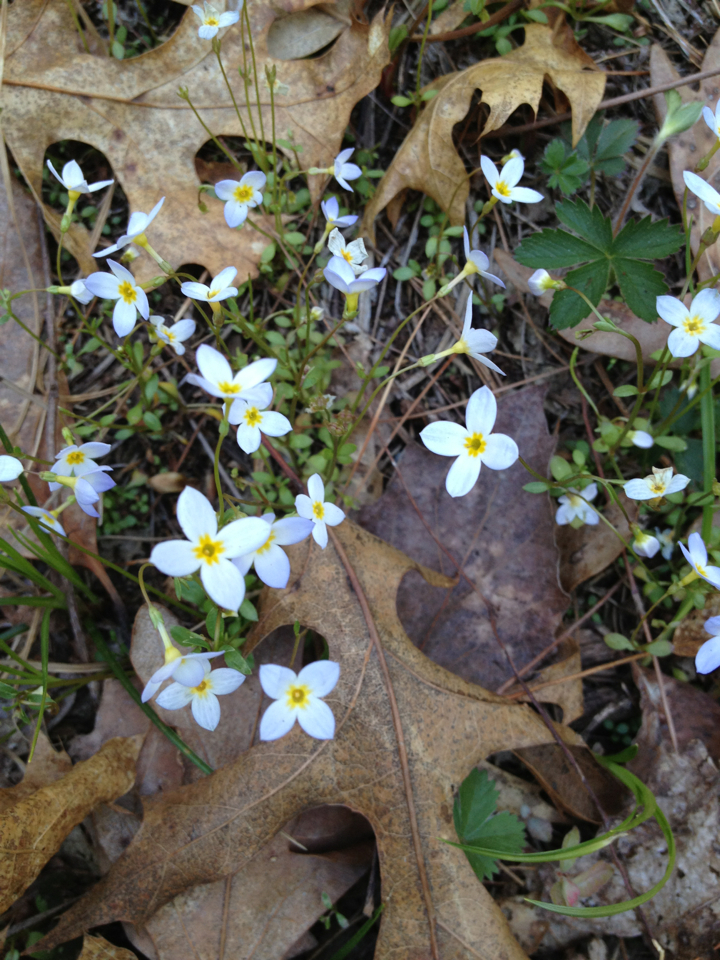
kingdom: Plantae
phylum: Tracheophyta
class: Magnoliopsida
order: Gentianales
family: Rubiaceae
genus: Houstonia
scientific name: Houstonia caerulea
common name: Bluets
